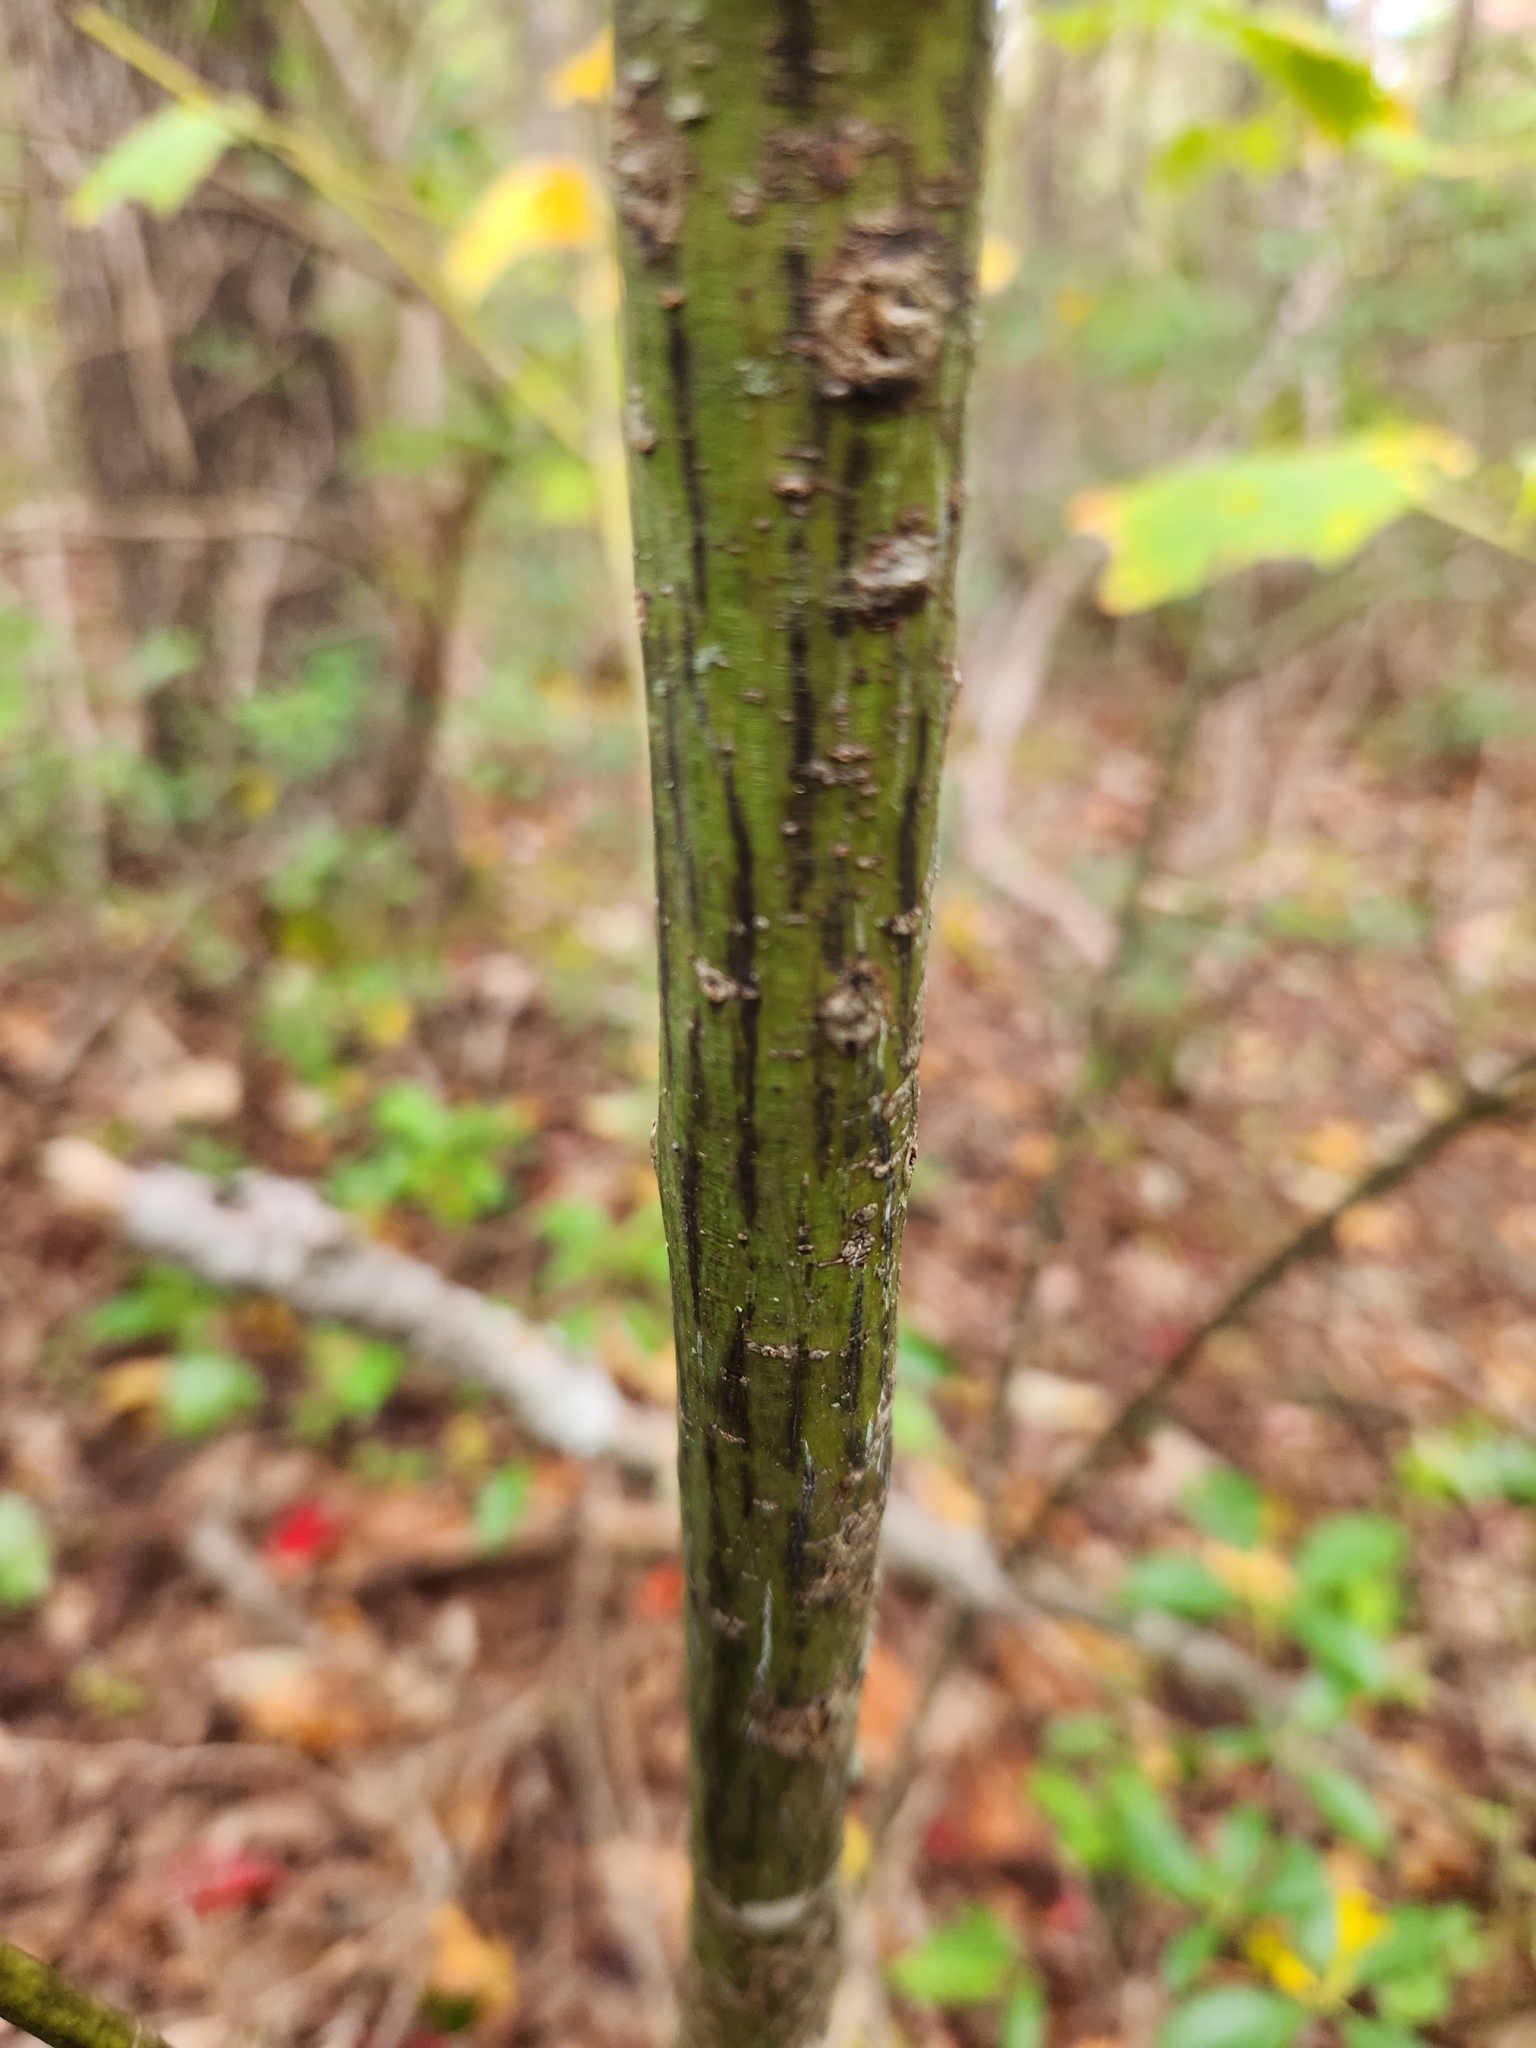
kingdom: Plantae
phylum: Tracheophyta
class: Magnoliopsida
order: Sapindales
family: Sapindaceae
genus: Acer
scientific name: Acer pensylvanicum
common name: Moosewood
